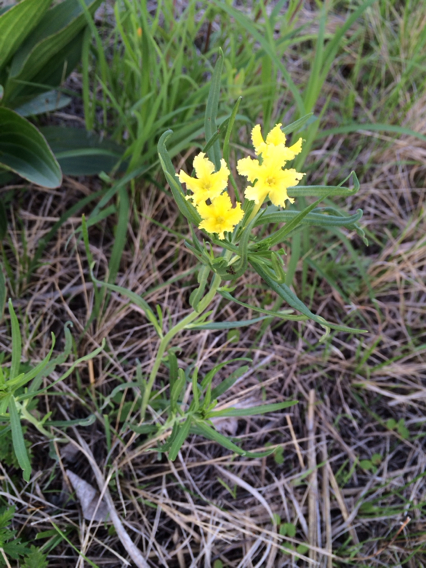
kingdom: Plantae
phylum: Tracheophyta
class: Magnoliopsida
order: Boraginales
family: Boraginaceae
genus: Lithospermum
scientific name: Lithospermum incisum
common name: Fringed gromwell
